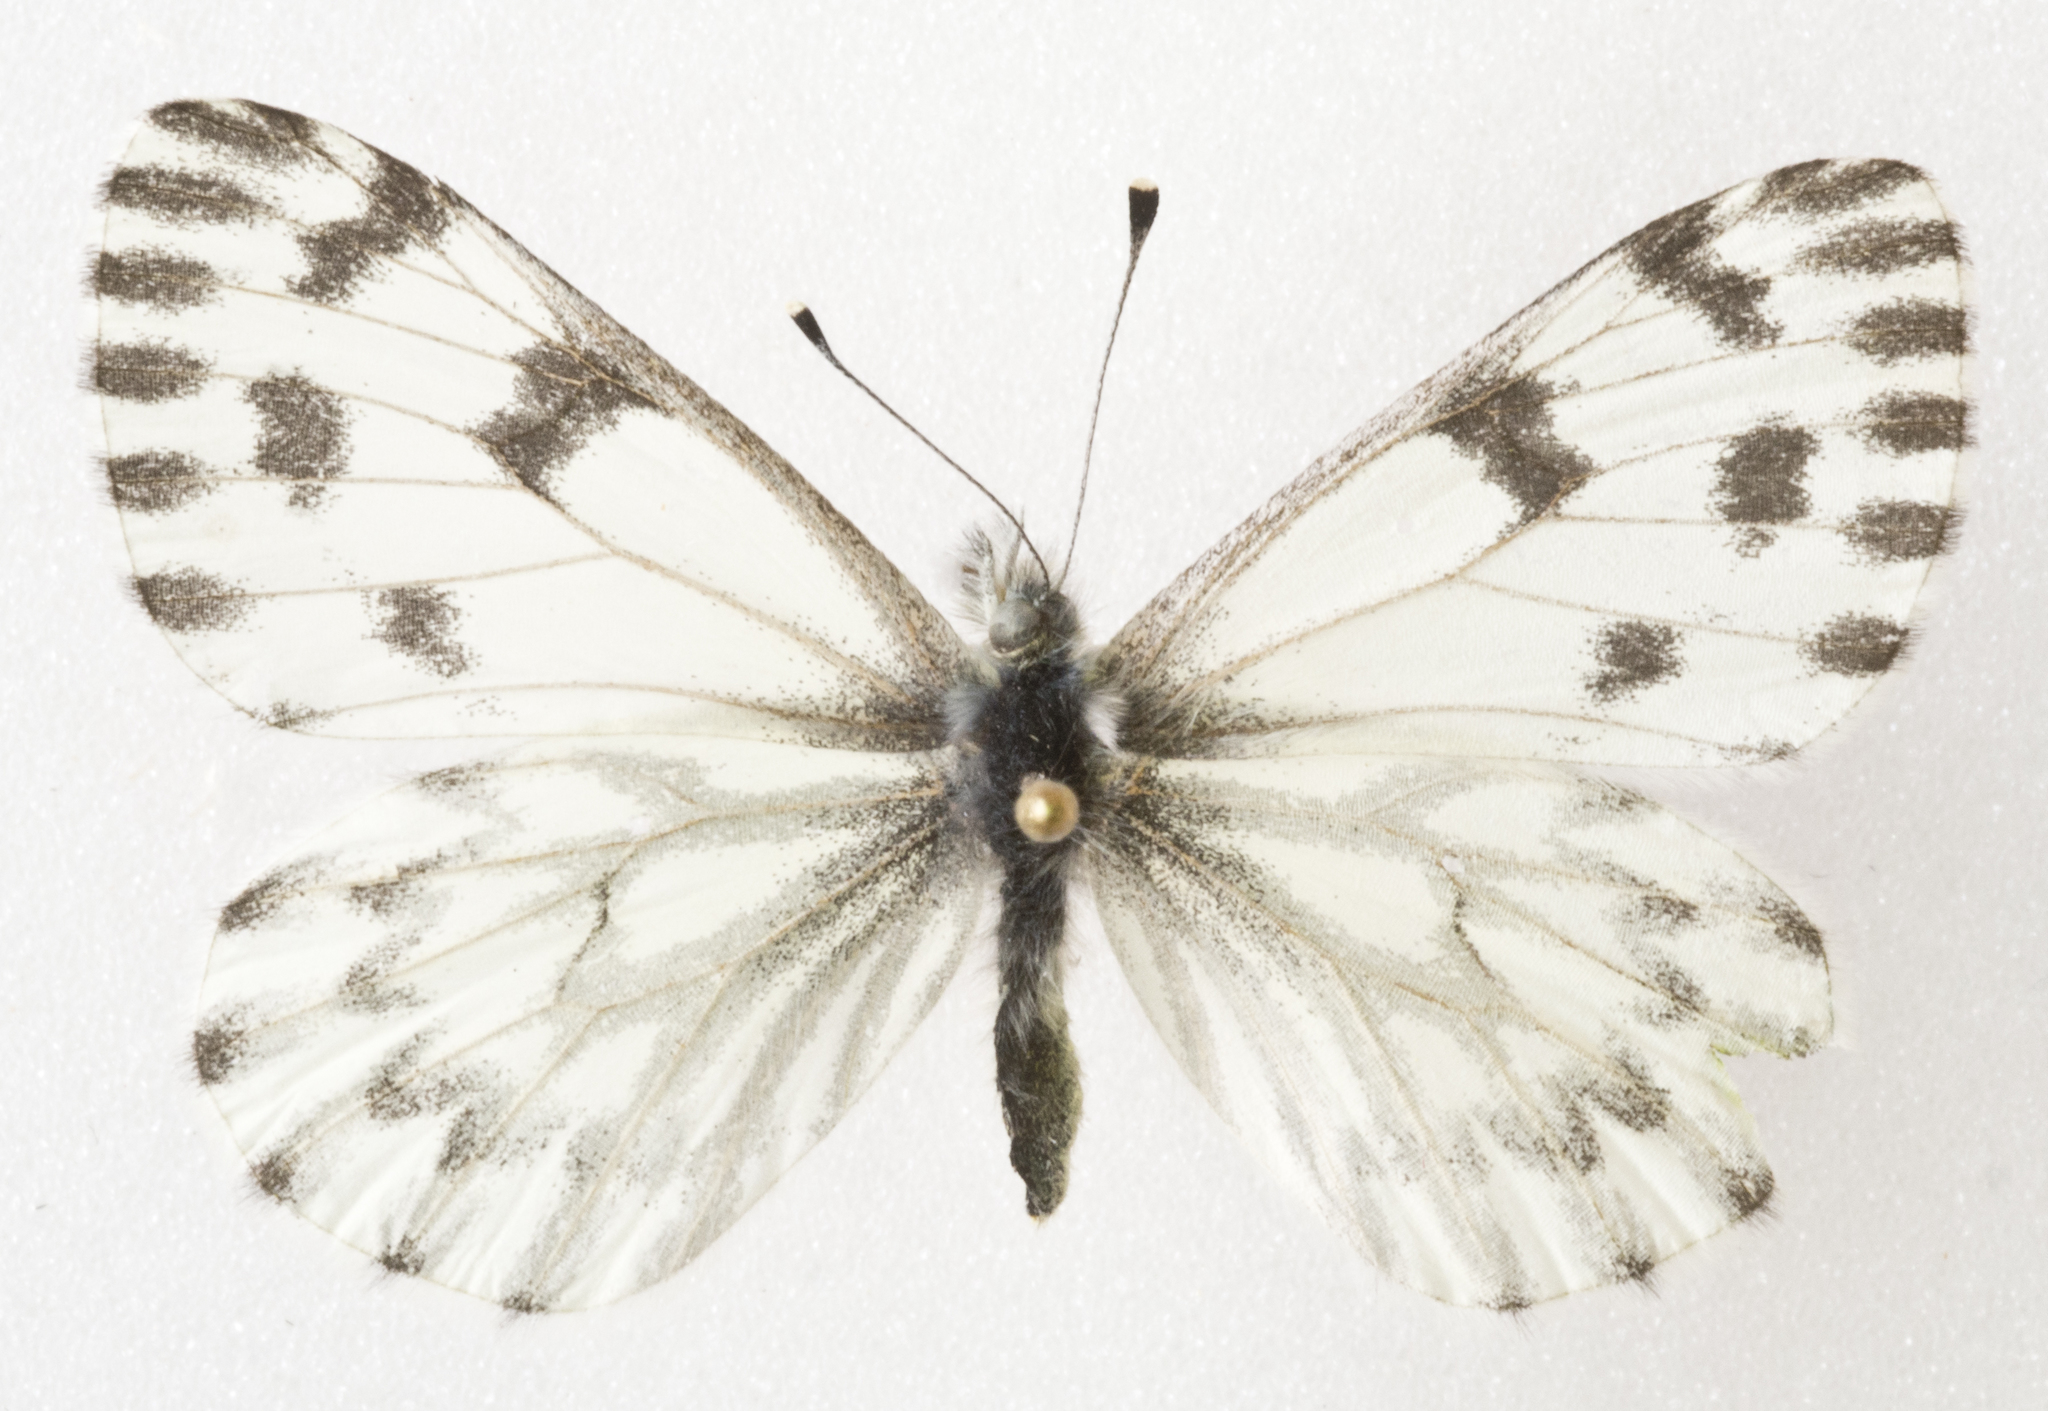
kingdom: Animalia
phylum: Arthropoda
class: Insecta
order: Lepidoptera
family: Pieridae
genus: Pontia
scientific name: Pontia sisymbrii
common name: California white
